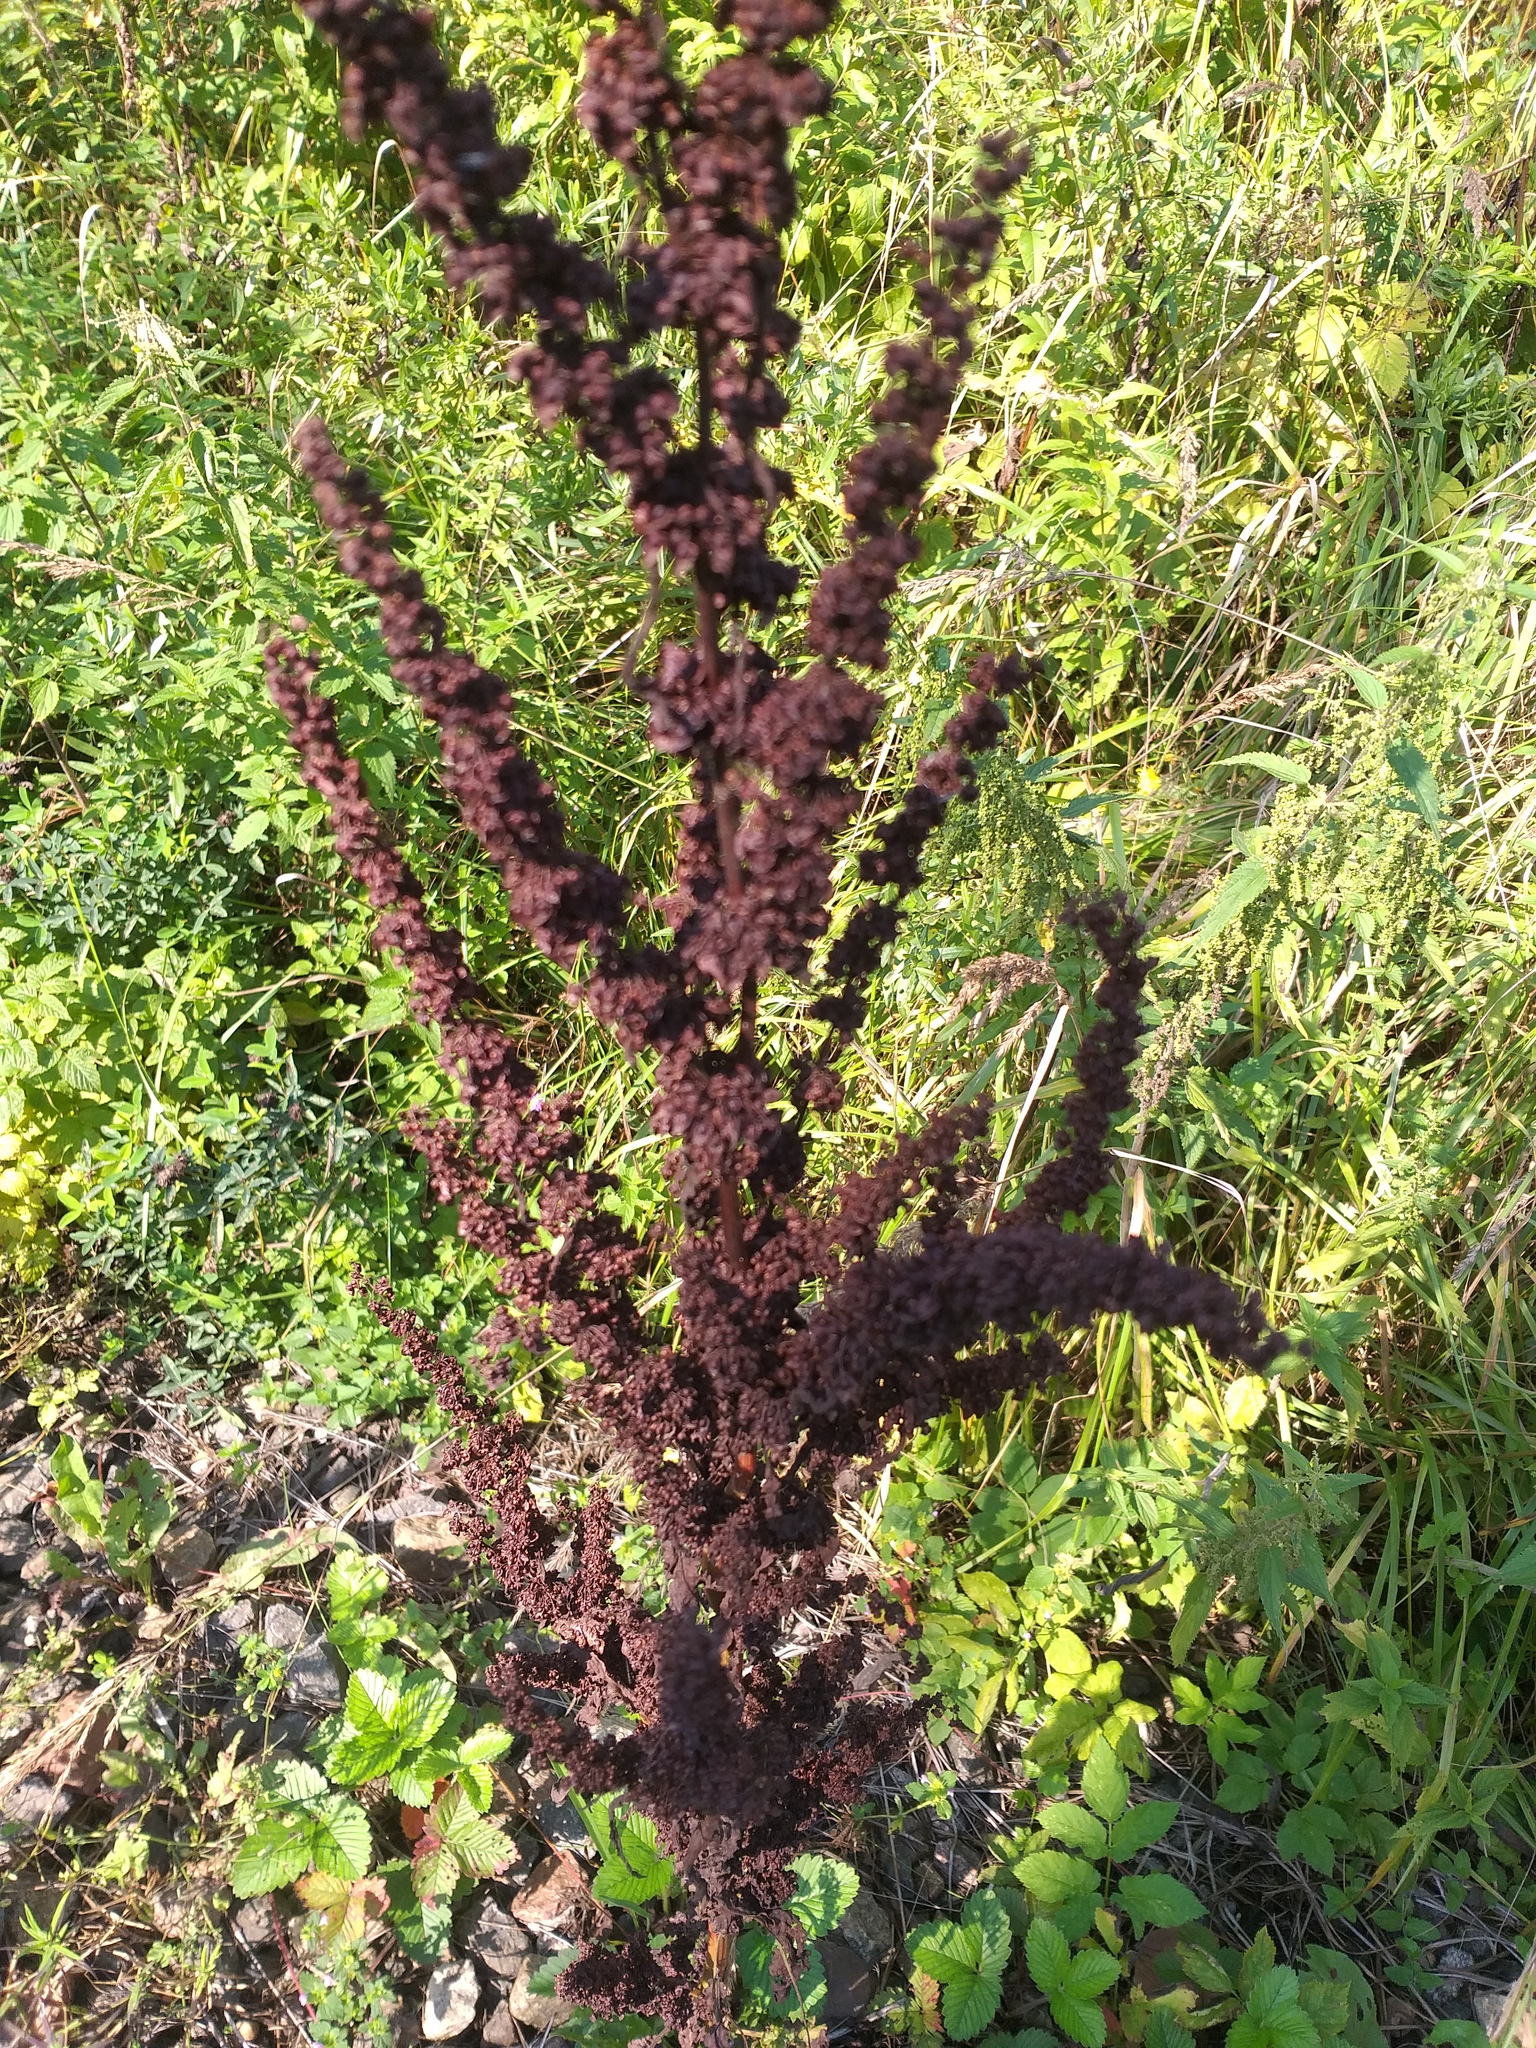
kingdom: Plantae
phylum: Tracheophyta
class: Magnoliopsida
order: Caryophyllales
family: Polygonaceae
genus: Rumex
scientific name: Rumex crispus
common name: Curled dock
